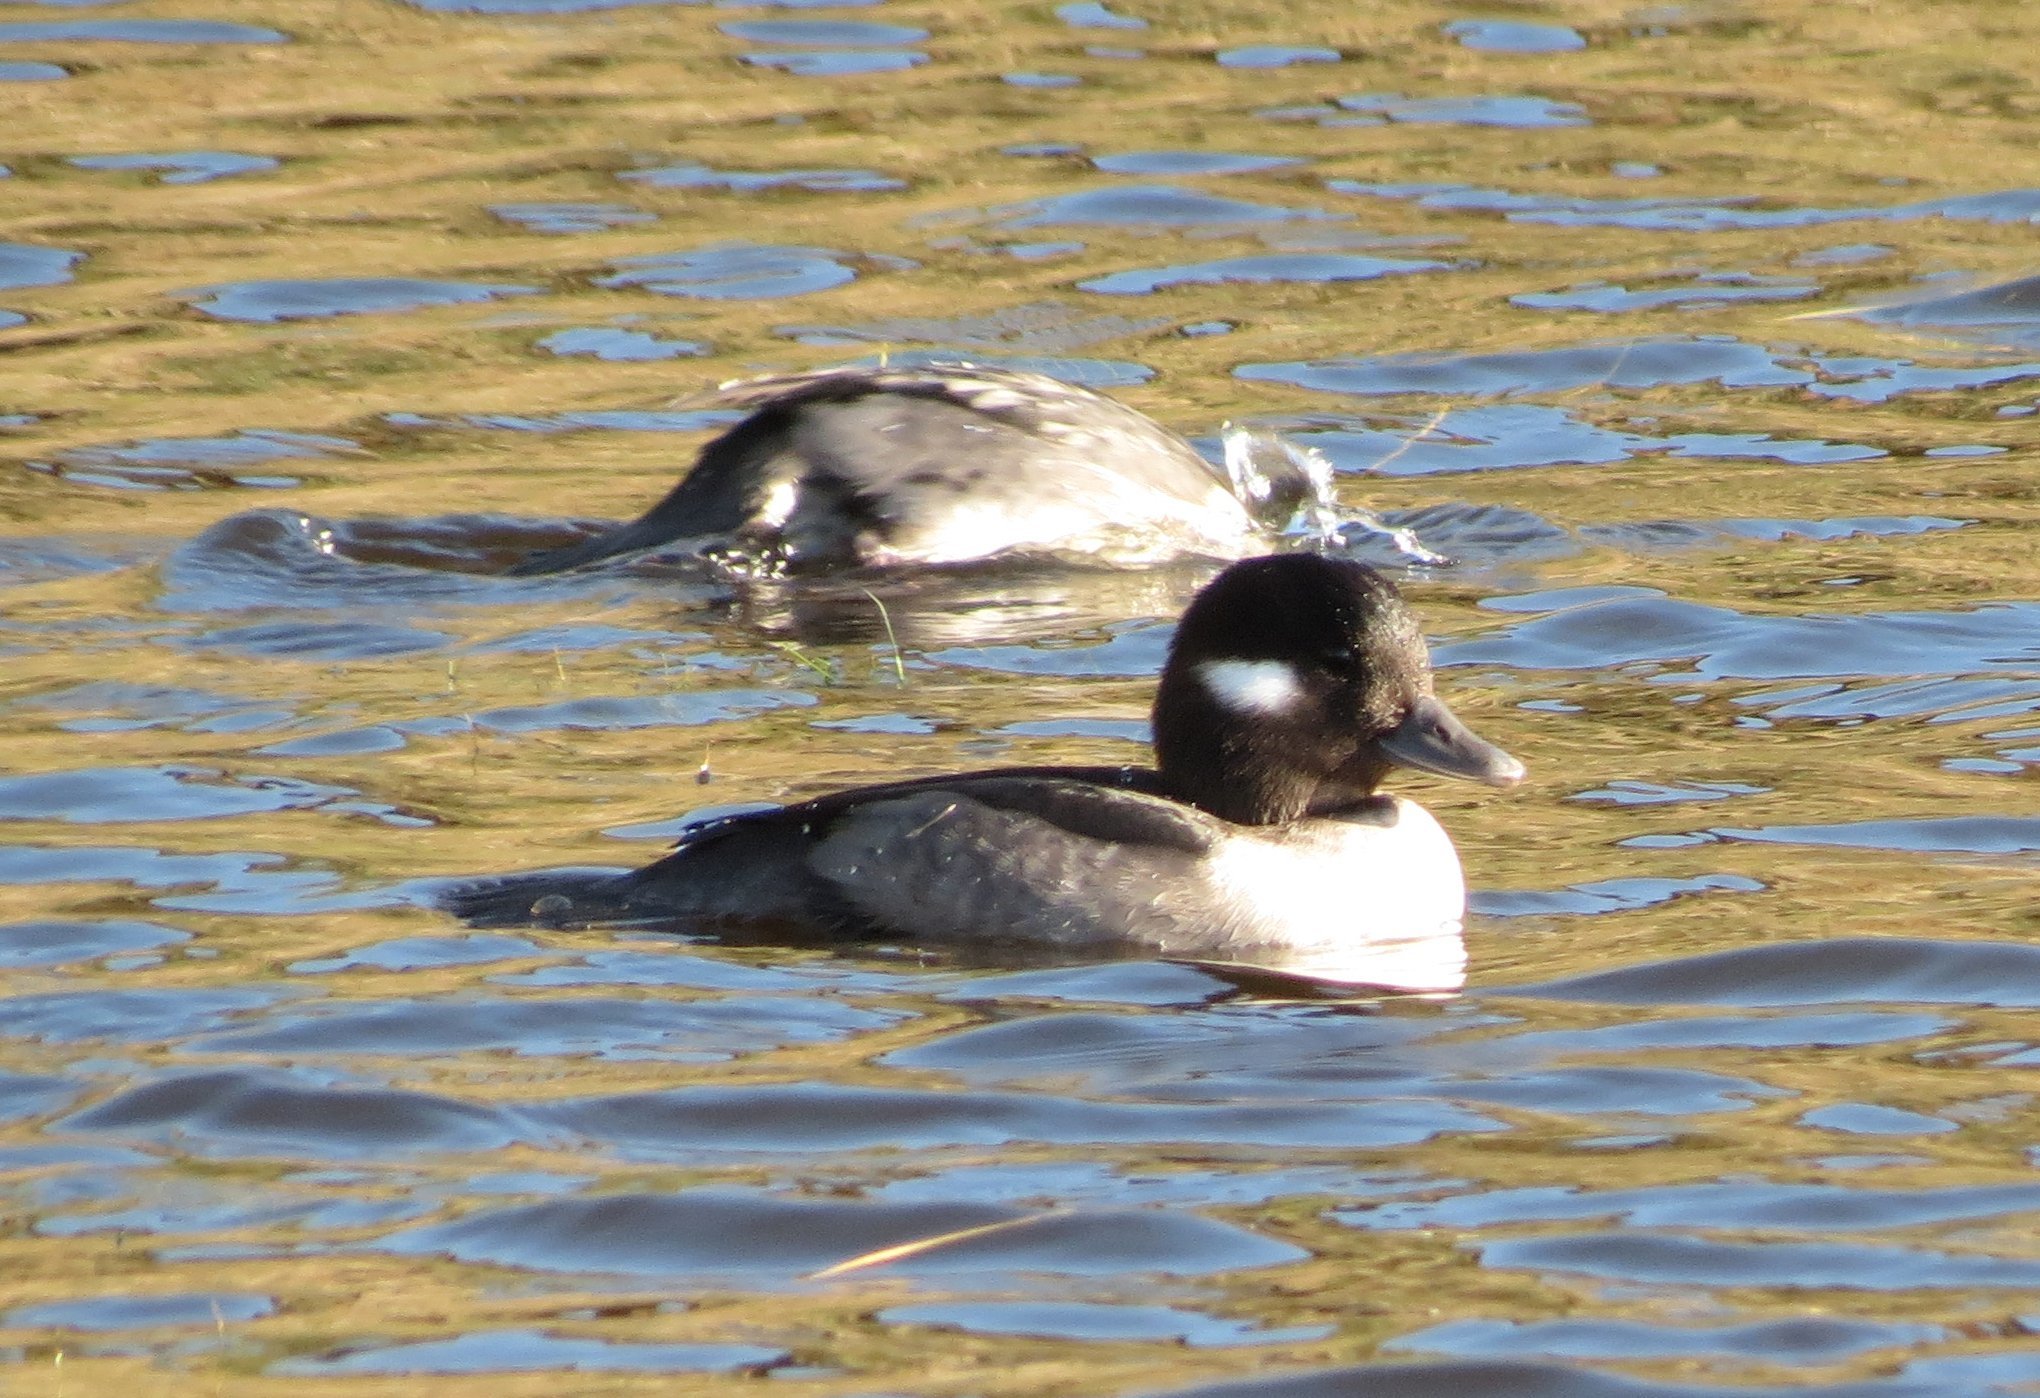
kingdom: Animalia
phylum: Chordata
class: Aves
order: Anseriformes
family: Anatidae
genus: Bucephala
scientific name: Bucephala albeola
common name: Bufflehead
